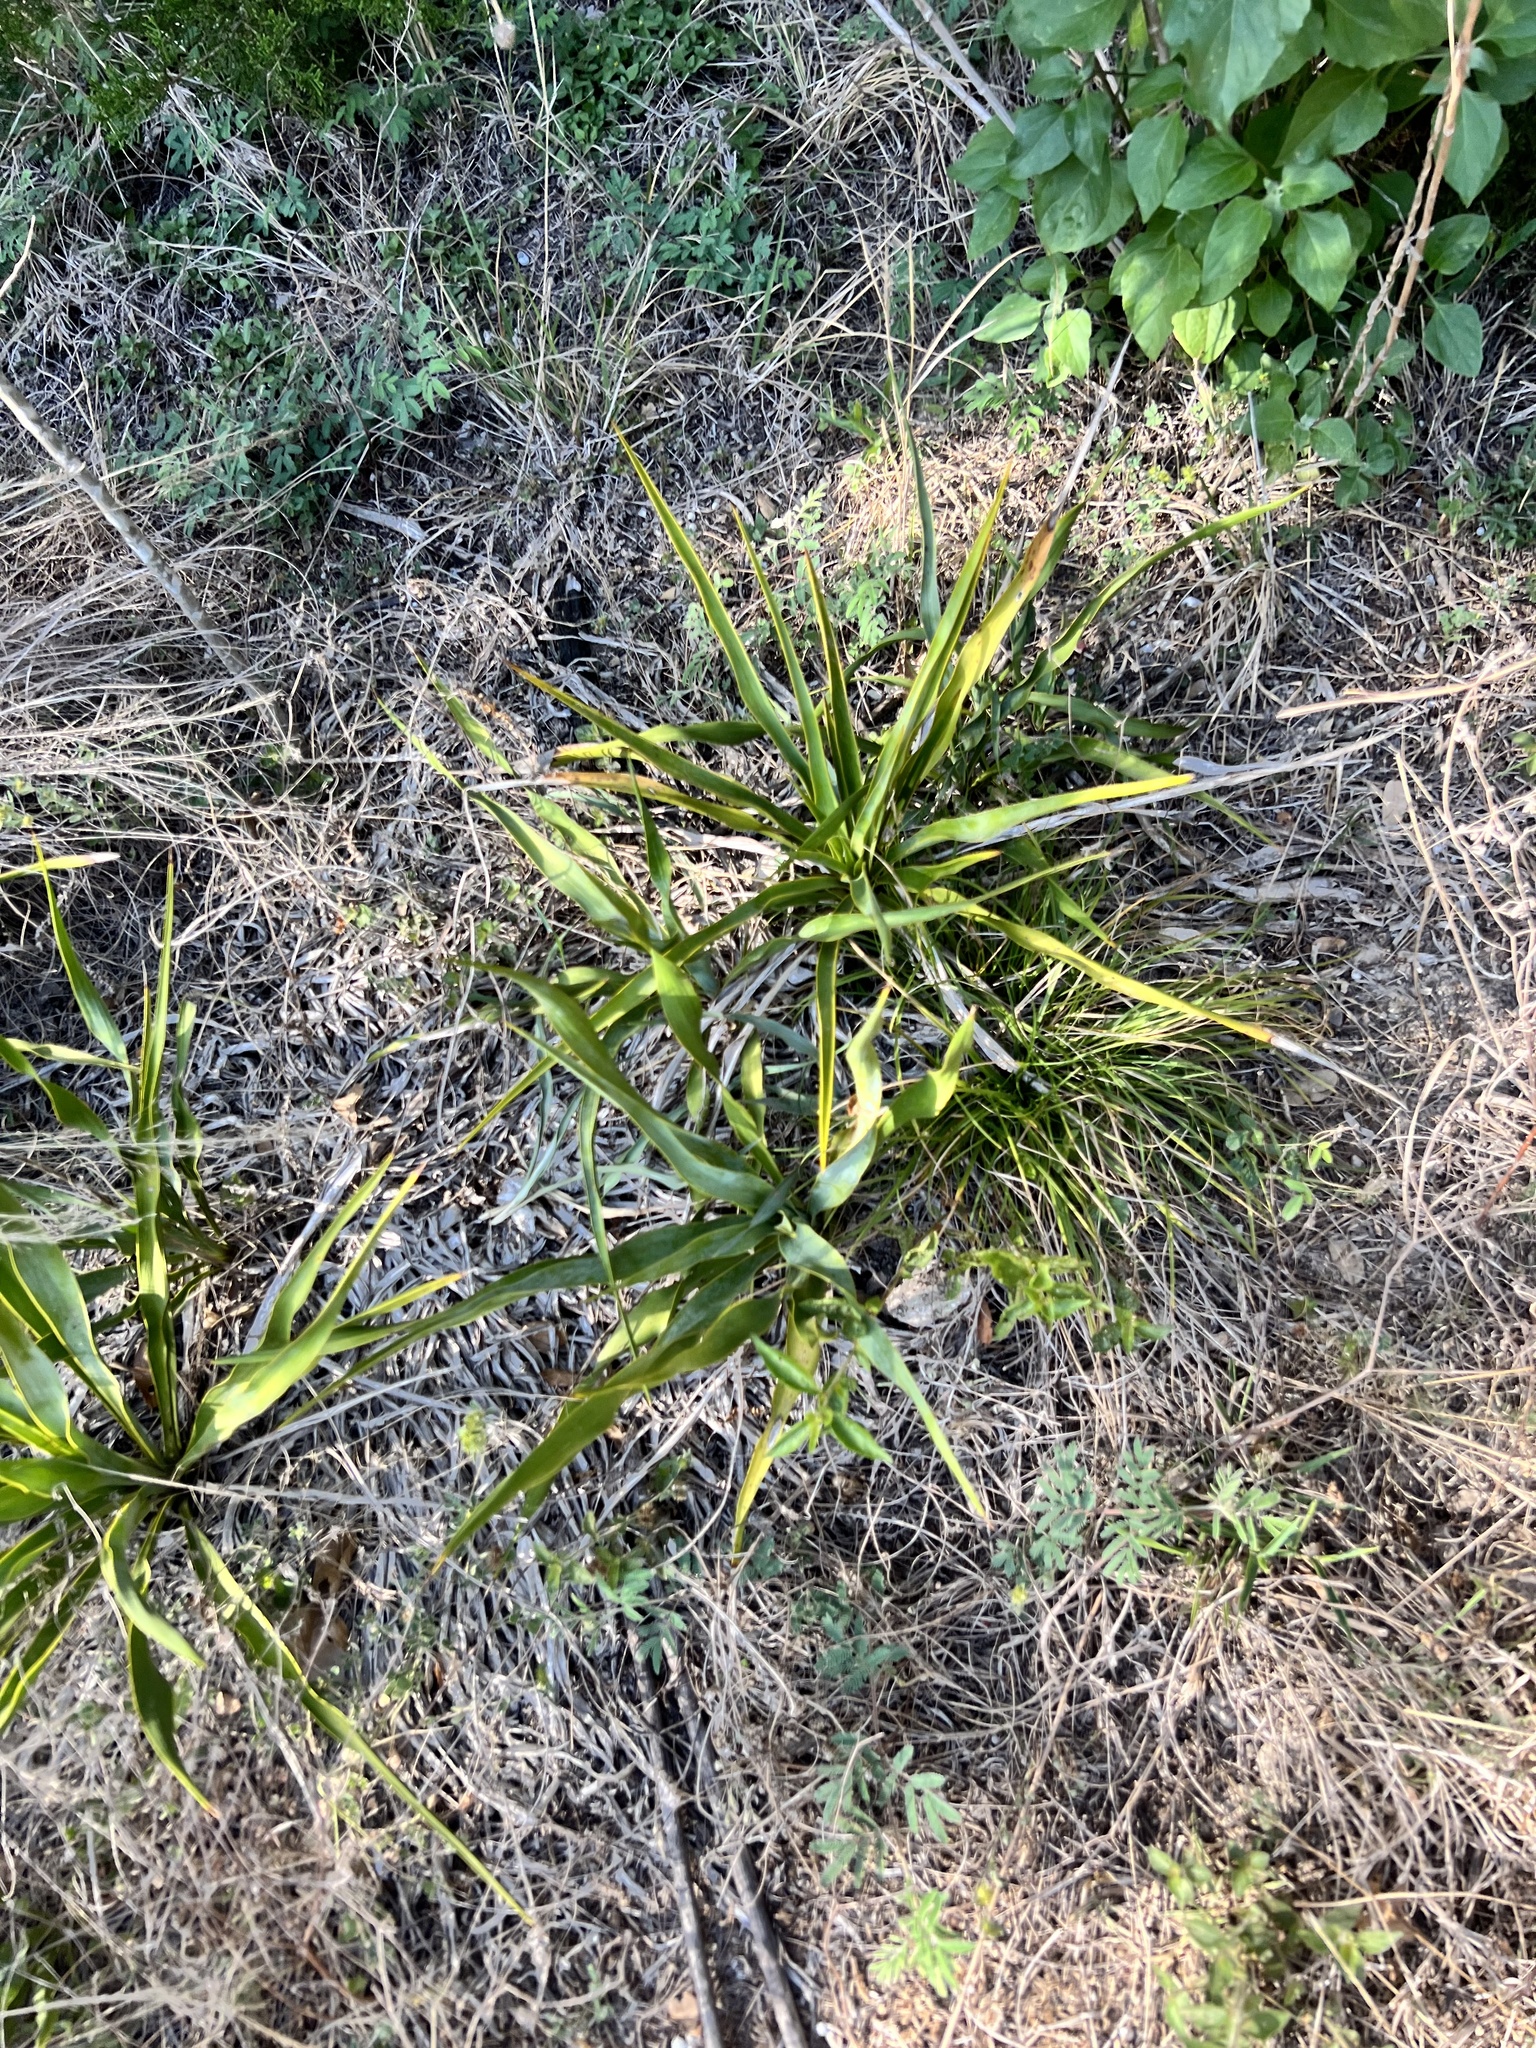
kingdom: Plantae
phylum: Tracheophyta
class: Liliopsida
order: Asparagales
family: Asparagaceae
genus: Yucca
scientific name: Yucca rupicola
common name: Twisted-leaf spanish-dagger
